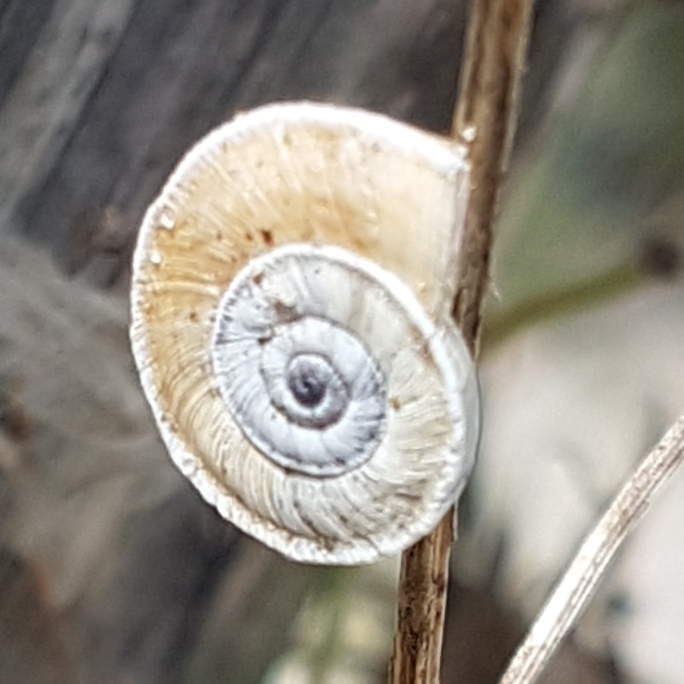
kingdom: Animalia
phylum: Mollusca
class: Gastropoda
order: Stylommatophora
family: Geomitridae
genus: Xerosecta
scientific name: Xerosecta explanata
